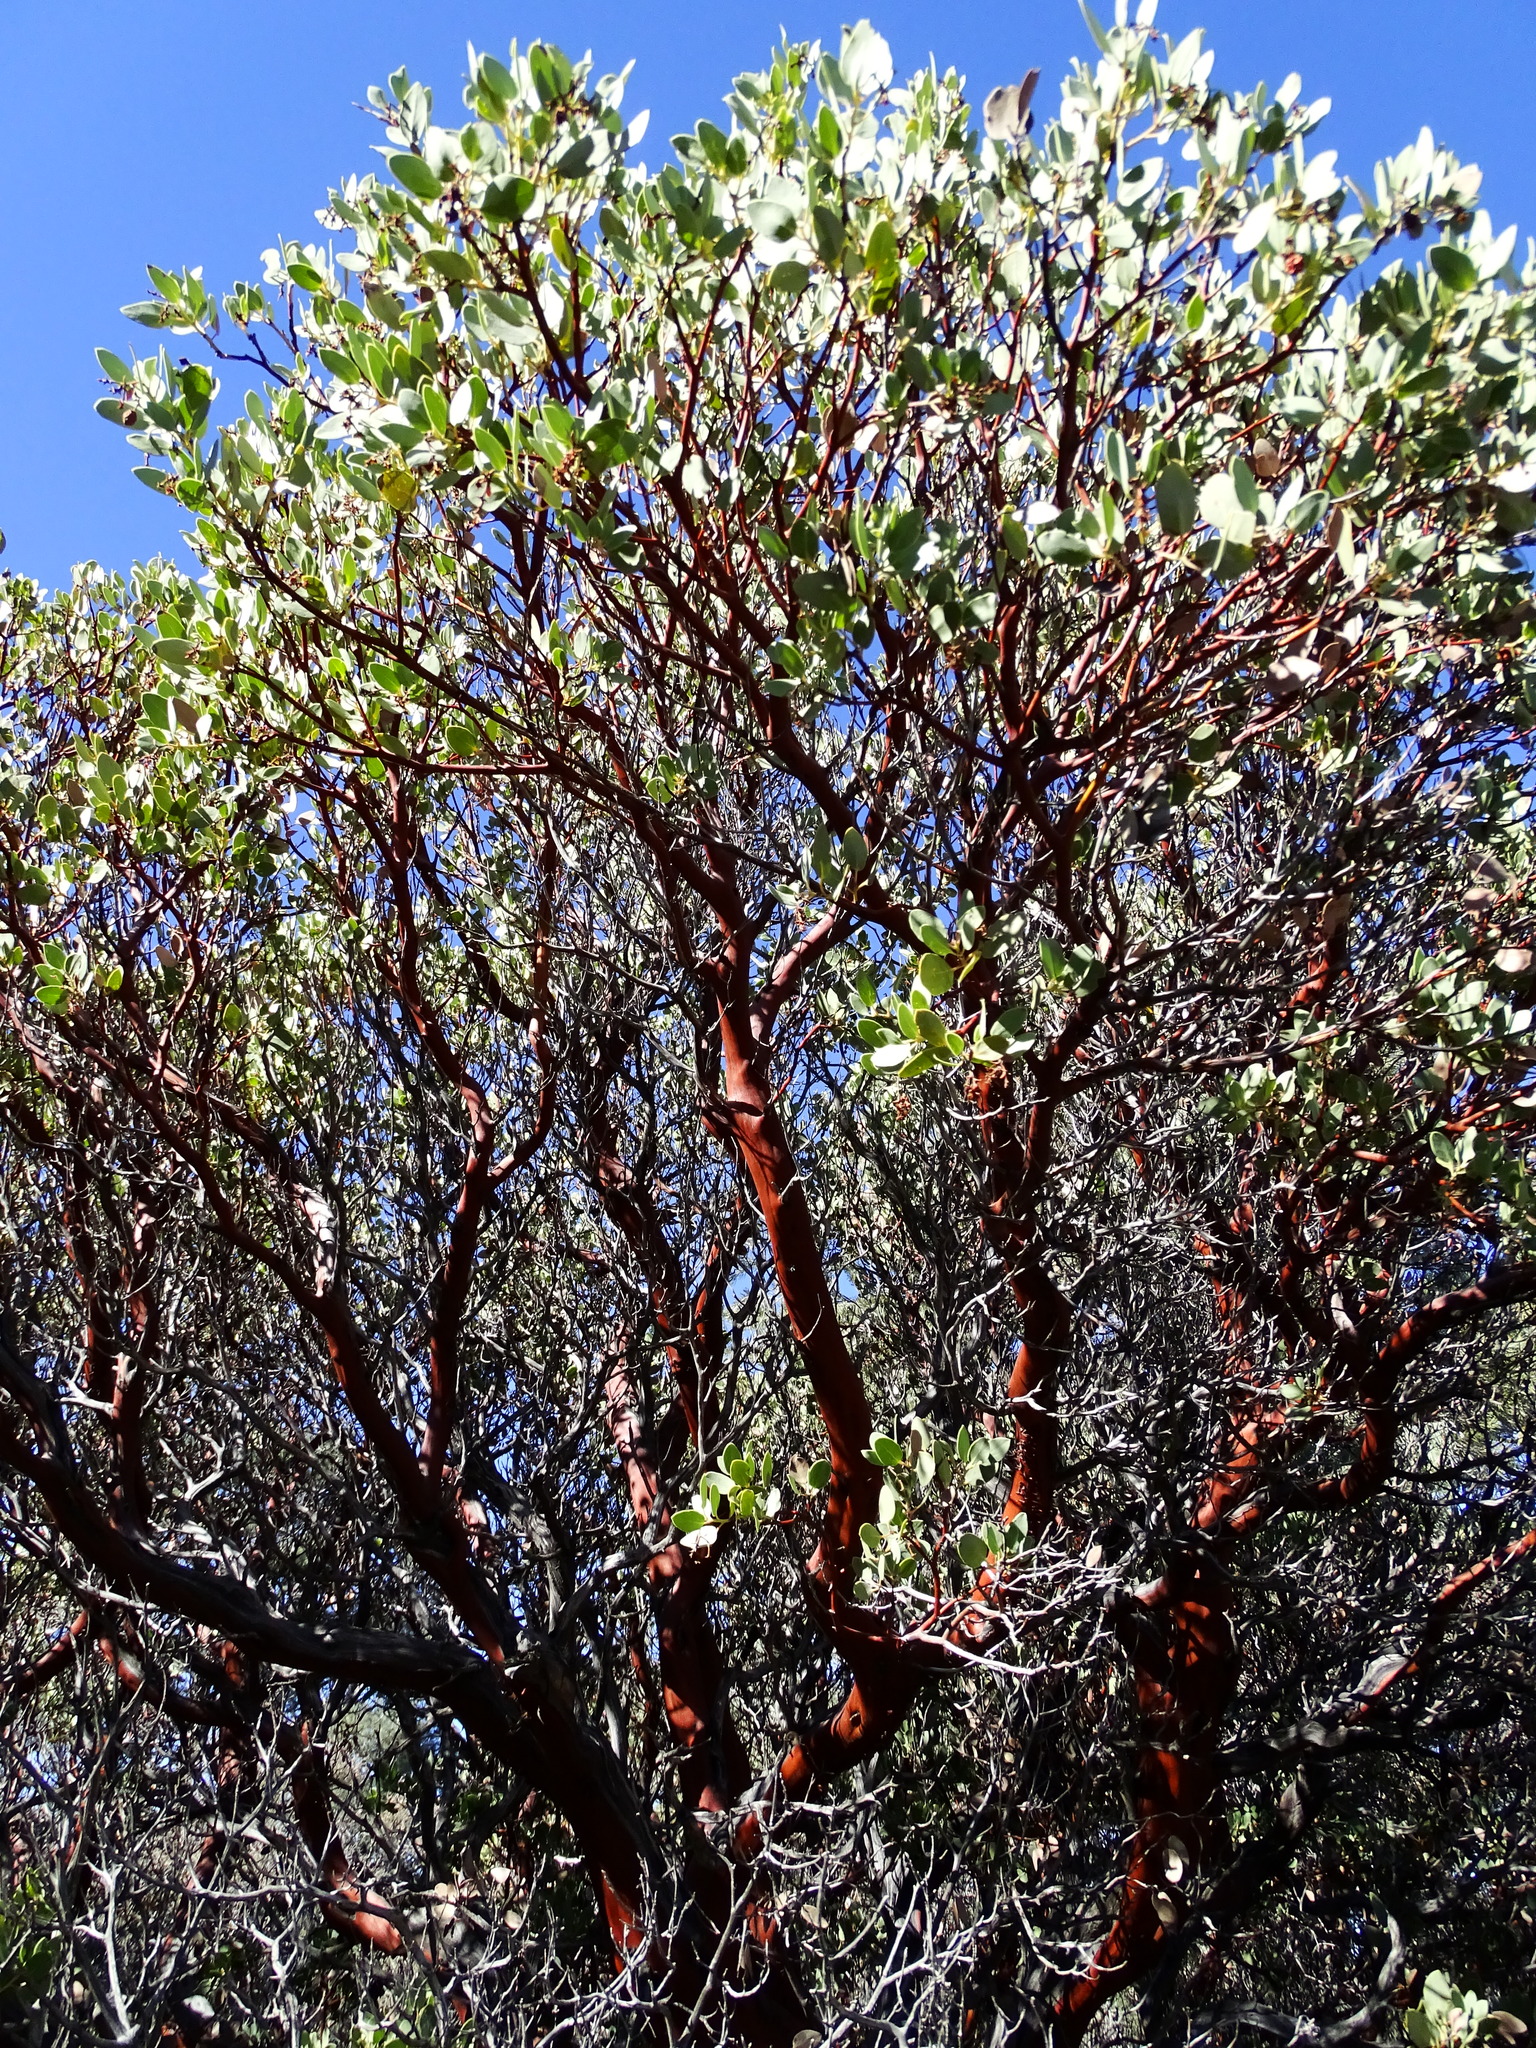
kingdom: Plantae
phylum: Tracheophyta
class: Magnoliopsida
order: Ericales
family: Ericaceae
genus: Arctostaphylos
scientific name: Arctostaphylos glauca
